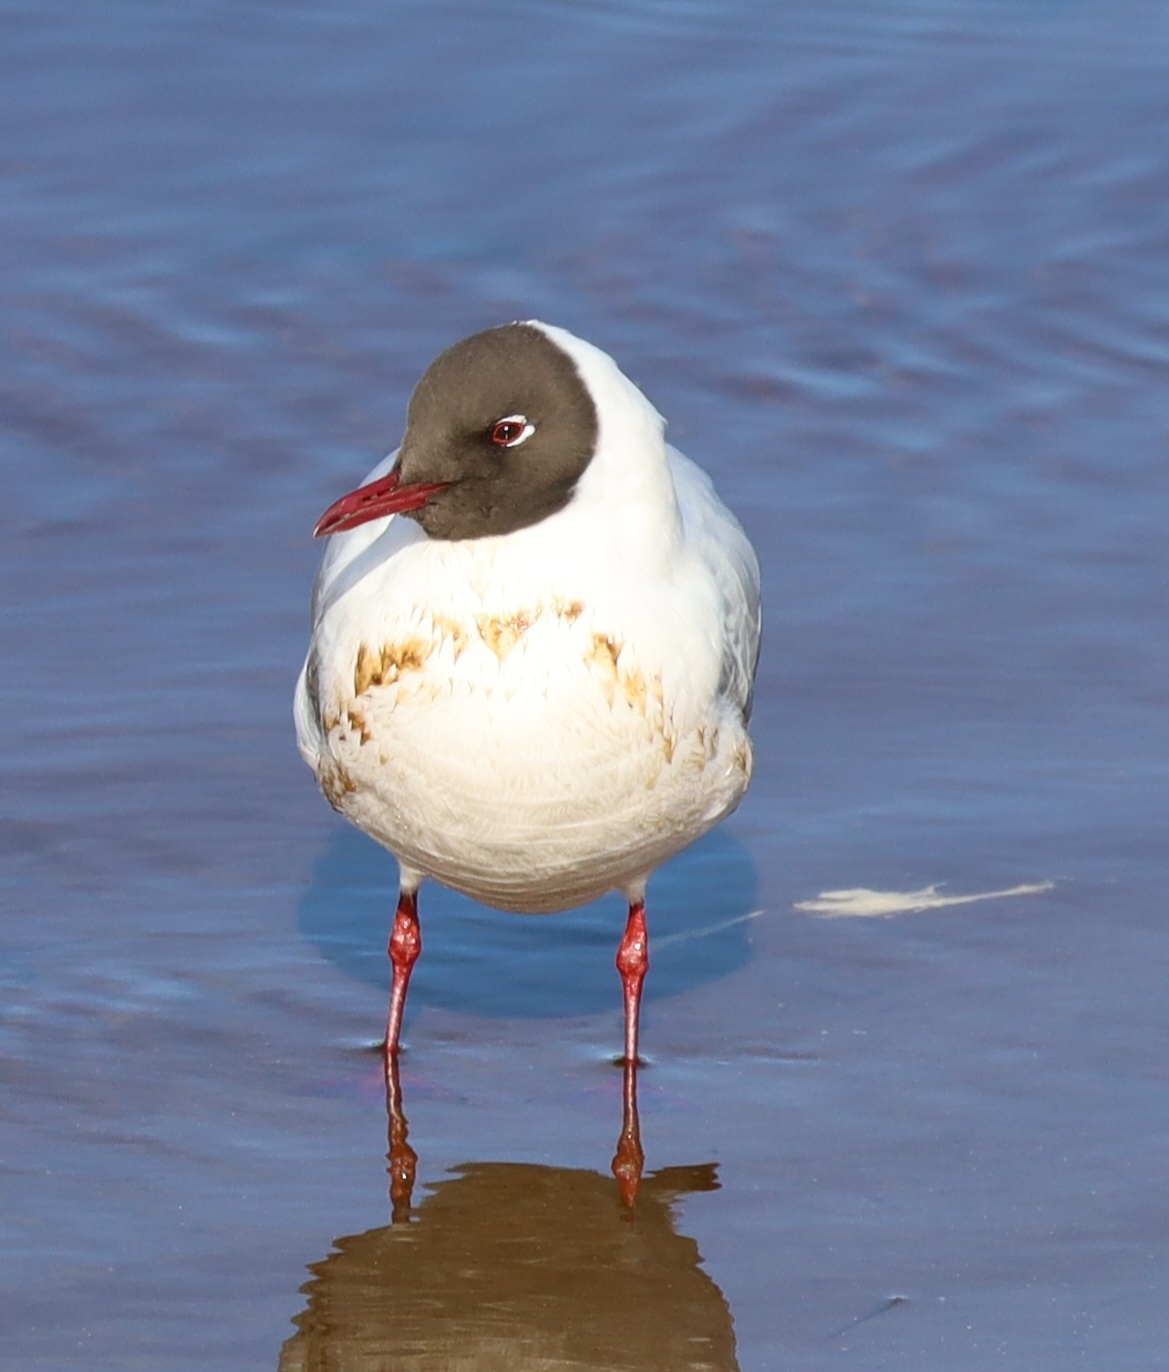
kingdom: Animalia
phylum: Chordata
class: Aves
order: Charadriiformes
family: Laridae
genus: Chroicocephalus
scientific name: Chroicocephalus ridibundus
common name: Black-headed gull
